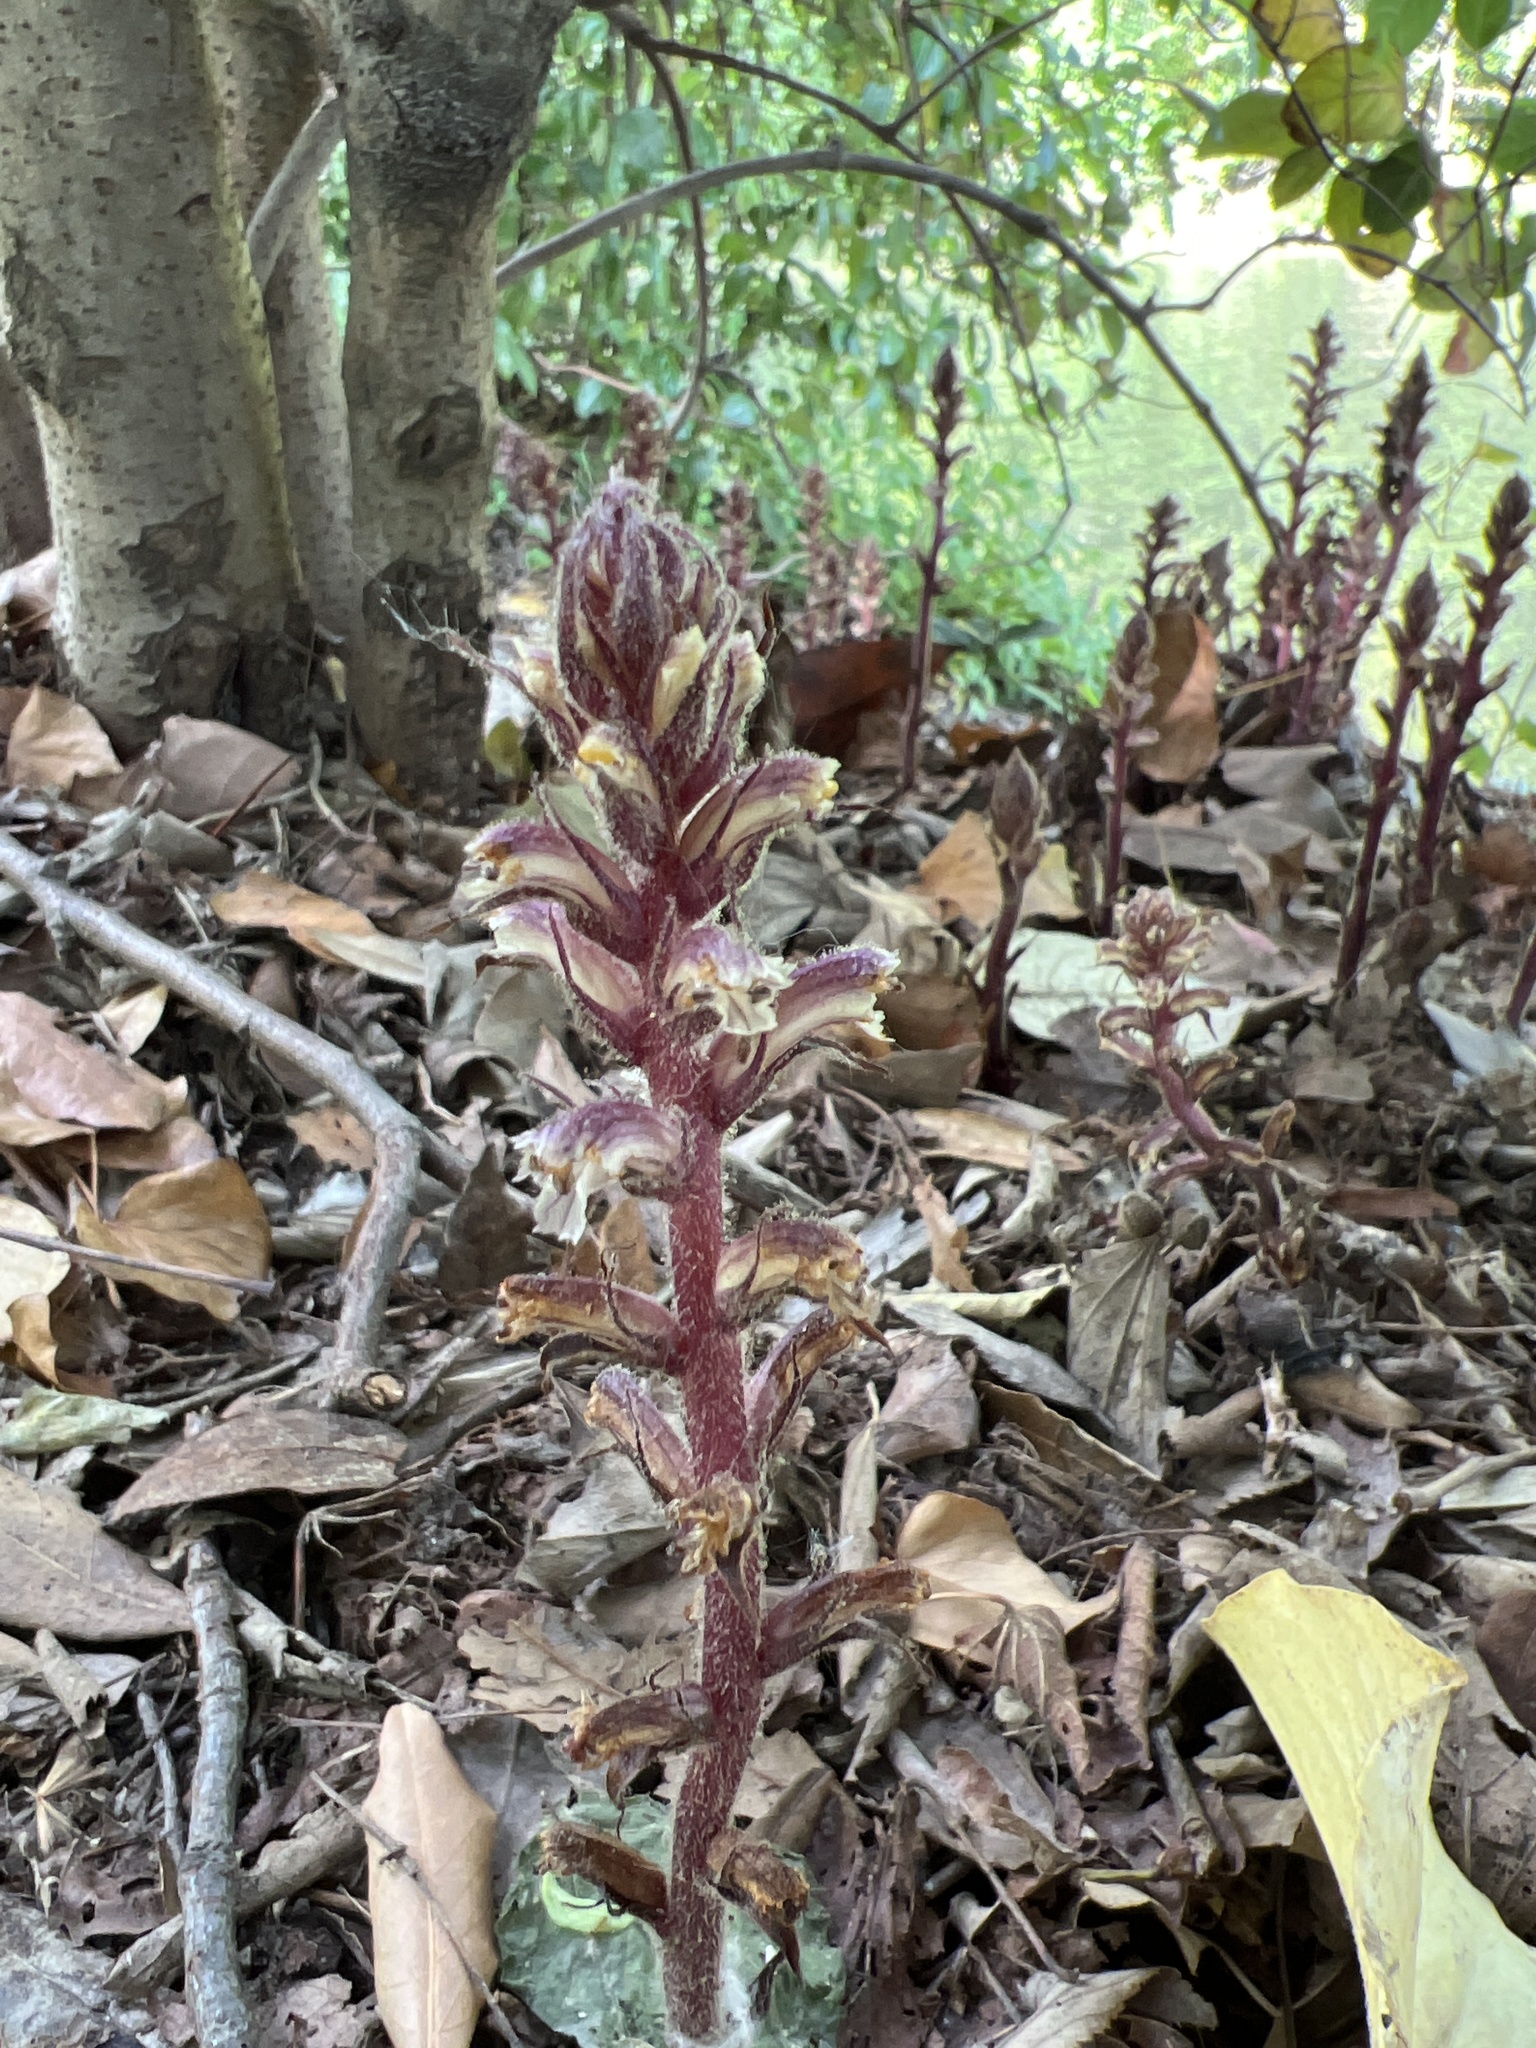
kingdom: Plantae
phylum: Tracheophyta
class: Magnoliopsida
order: Lamiales
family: Orobanchaceae
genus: Orobanche
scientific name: Orobanche hederae
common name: Ivy broomrape
